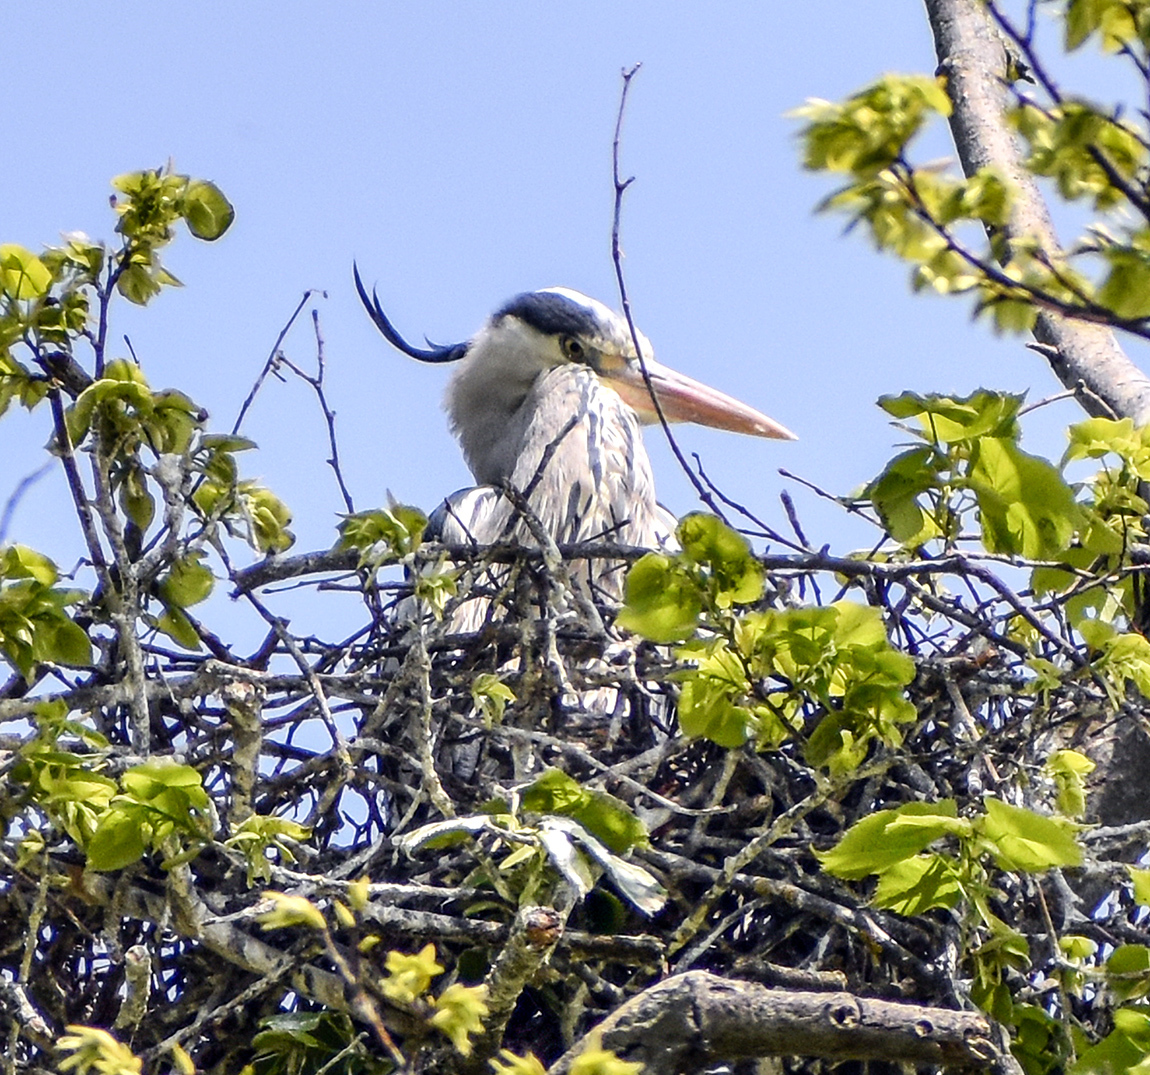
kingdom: Animalia
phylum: Chordata
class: Aves
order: Pelecaniformes
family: Ardeidae
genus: Ardea
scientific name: Ardea cinerea
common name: Grey heron
